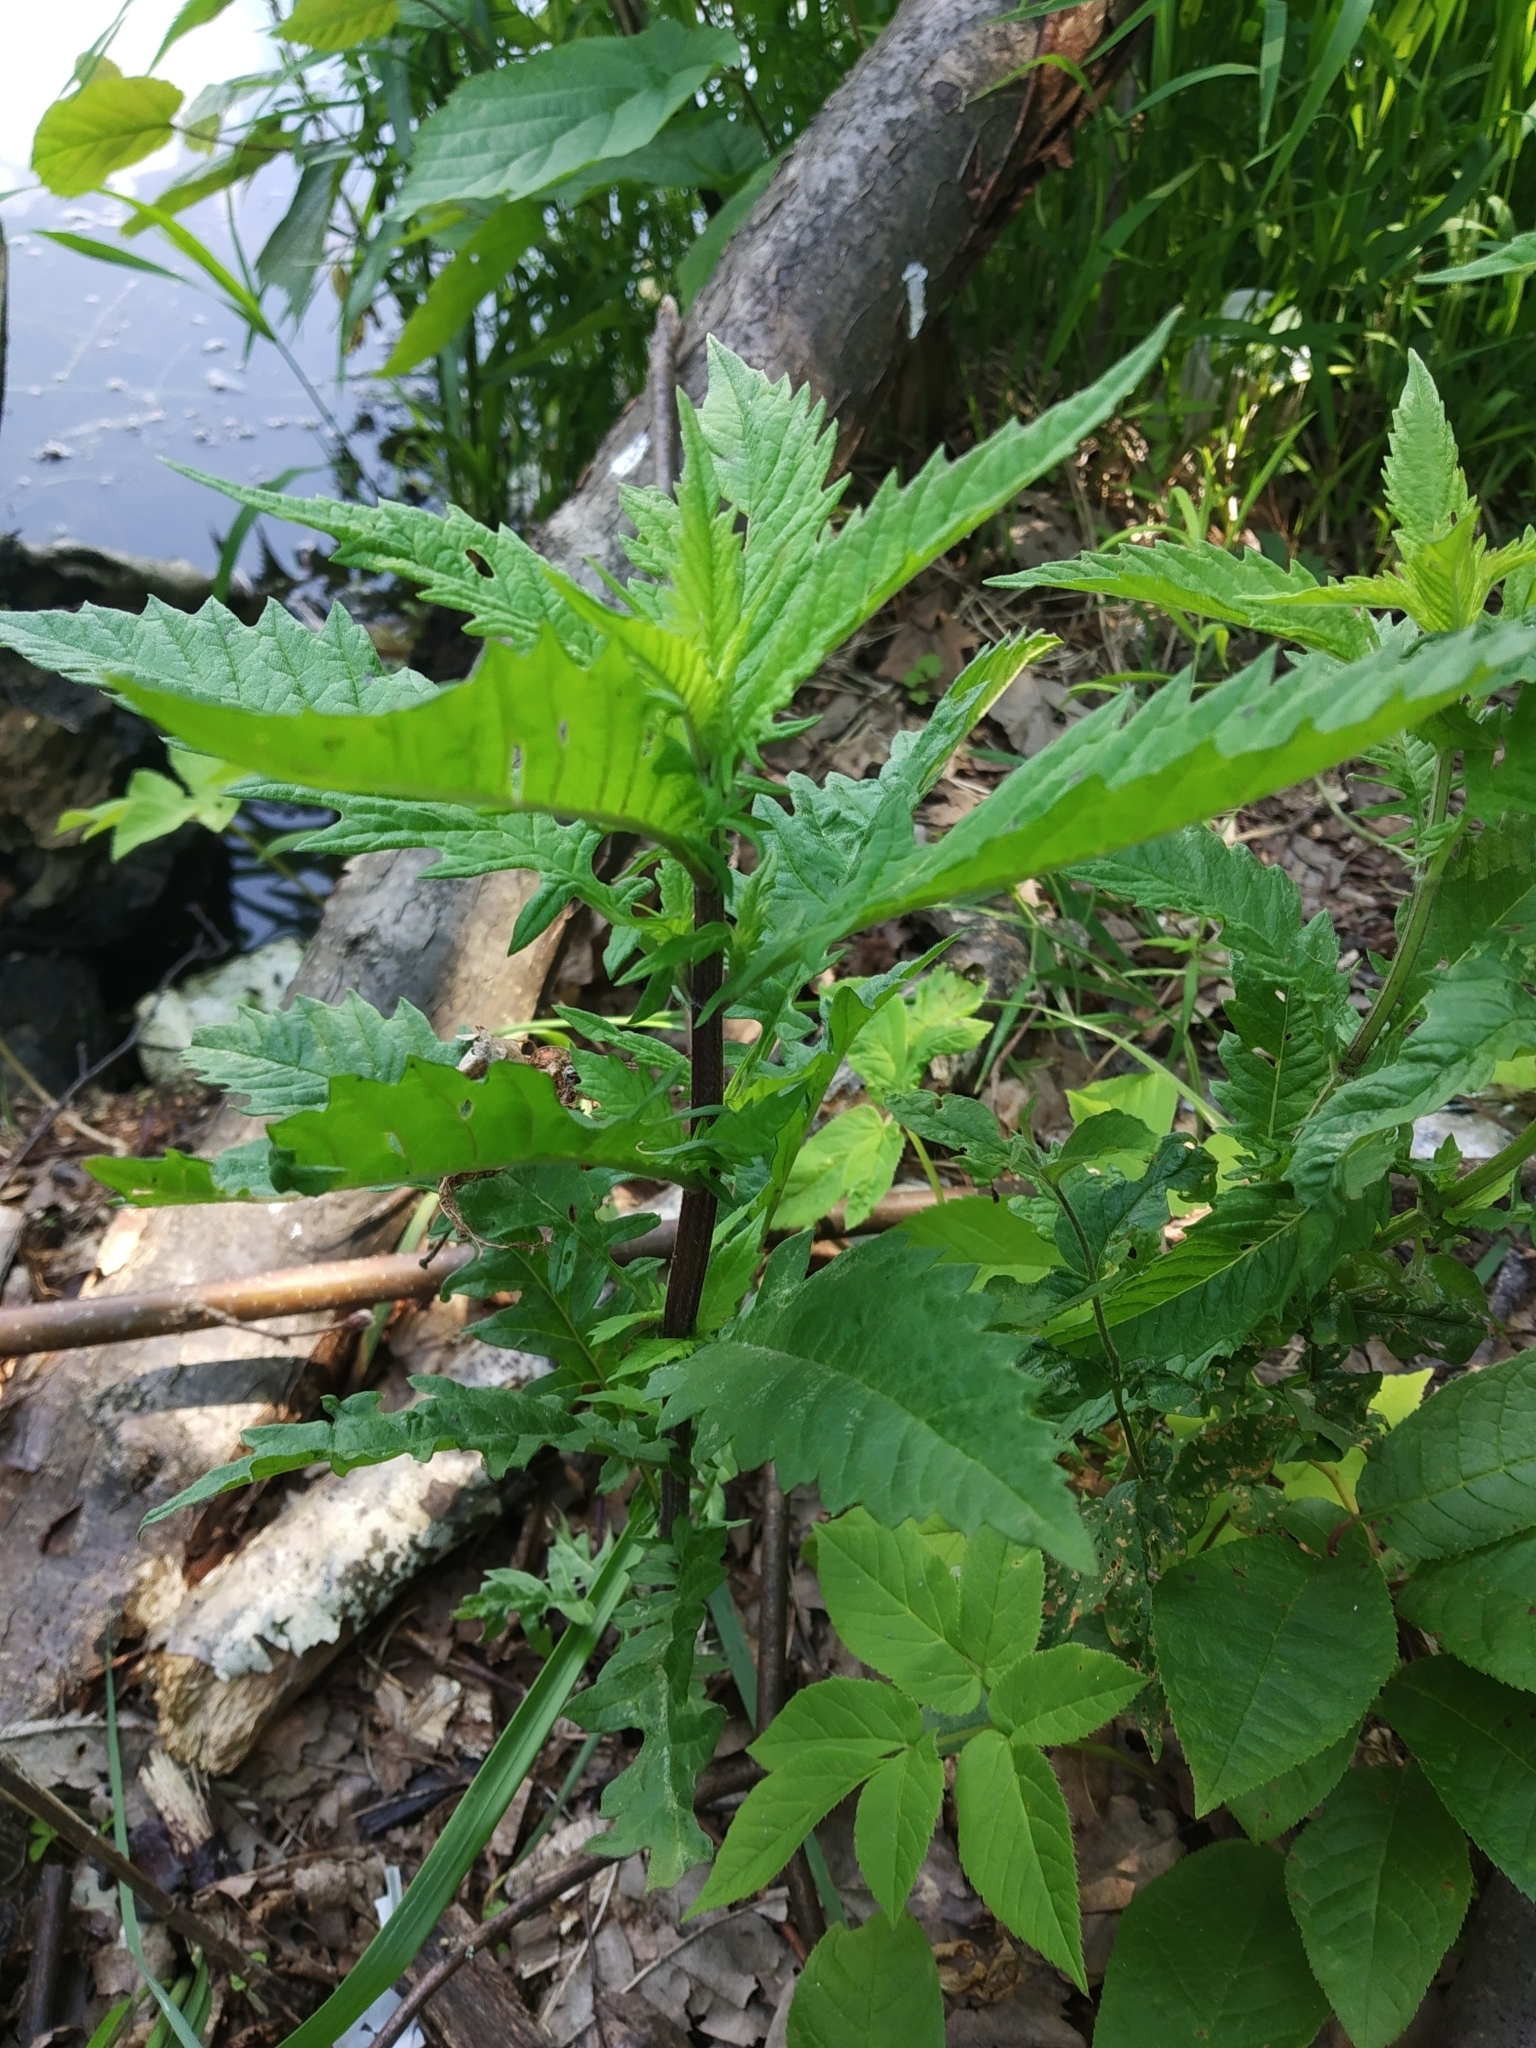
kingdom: Plantae
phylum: Tracheophyta
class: Magnoliopsida
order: Lamiales
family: Lamiaceae
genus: Lycopus
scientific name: Lycopus europaeus
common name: European bugleweed
